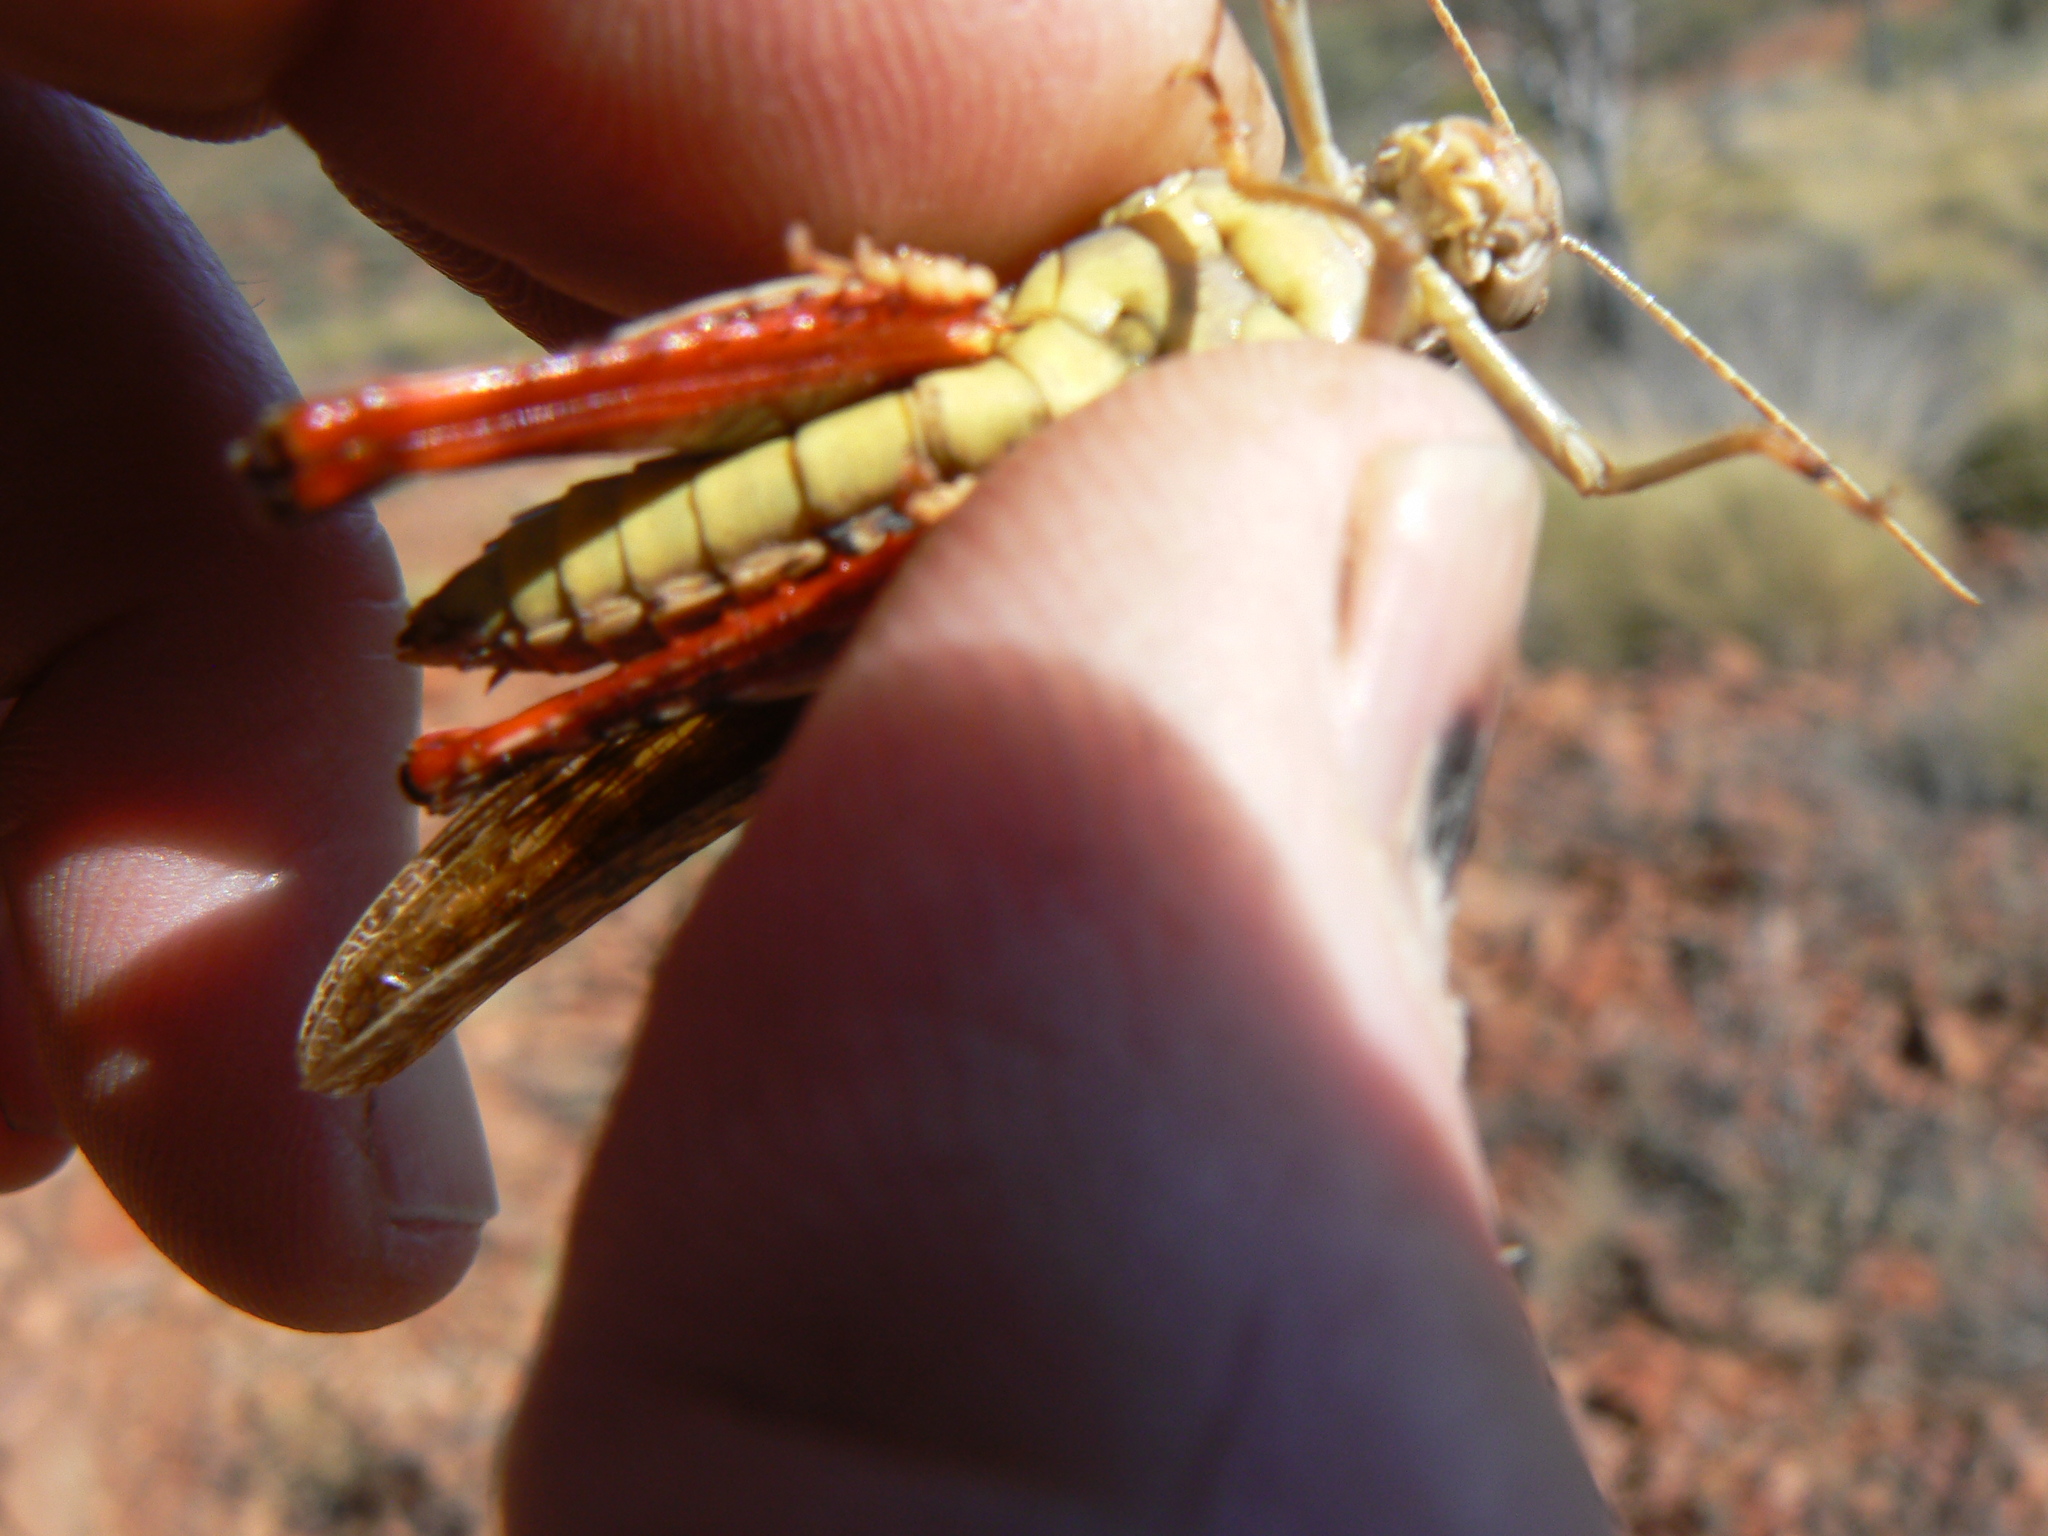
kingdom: Animalia
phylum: Arthropoda
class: Insecta
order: Orthoptera
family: Acrididae
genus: Cuprascula
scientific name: Cuprascula pictipes
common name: Copper-winged grasshopper
